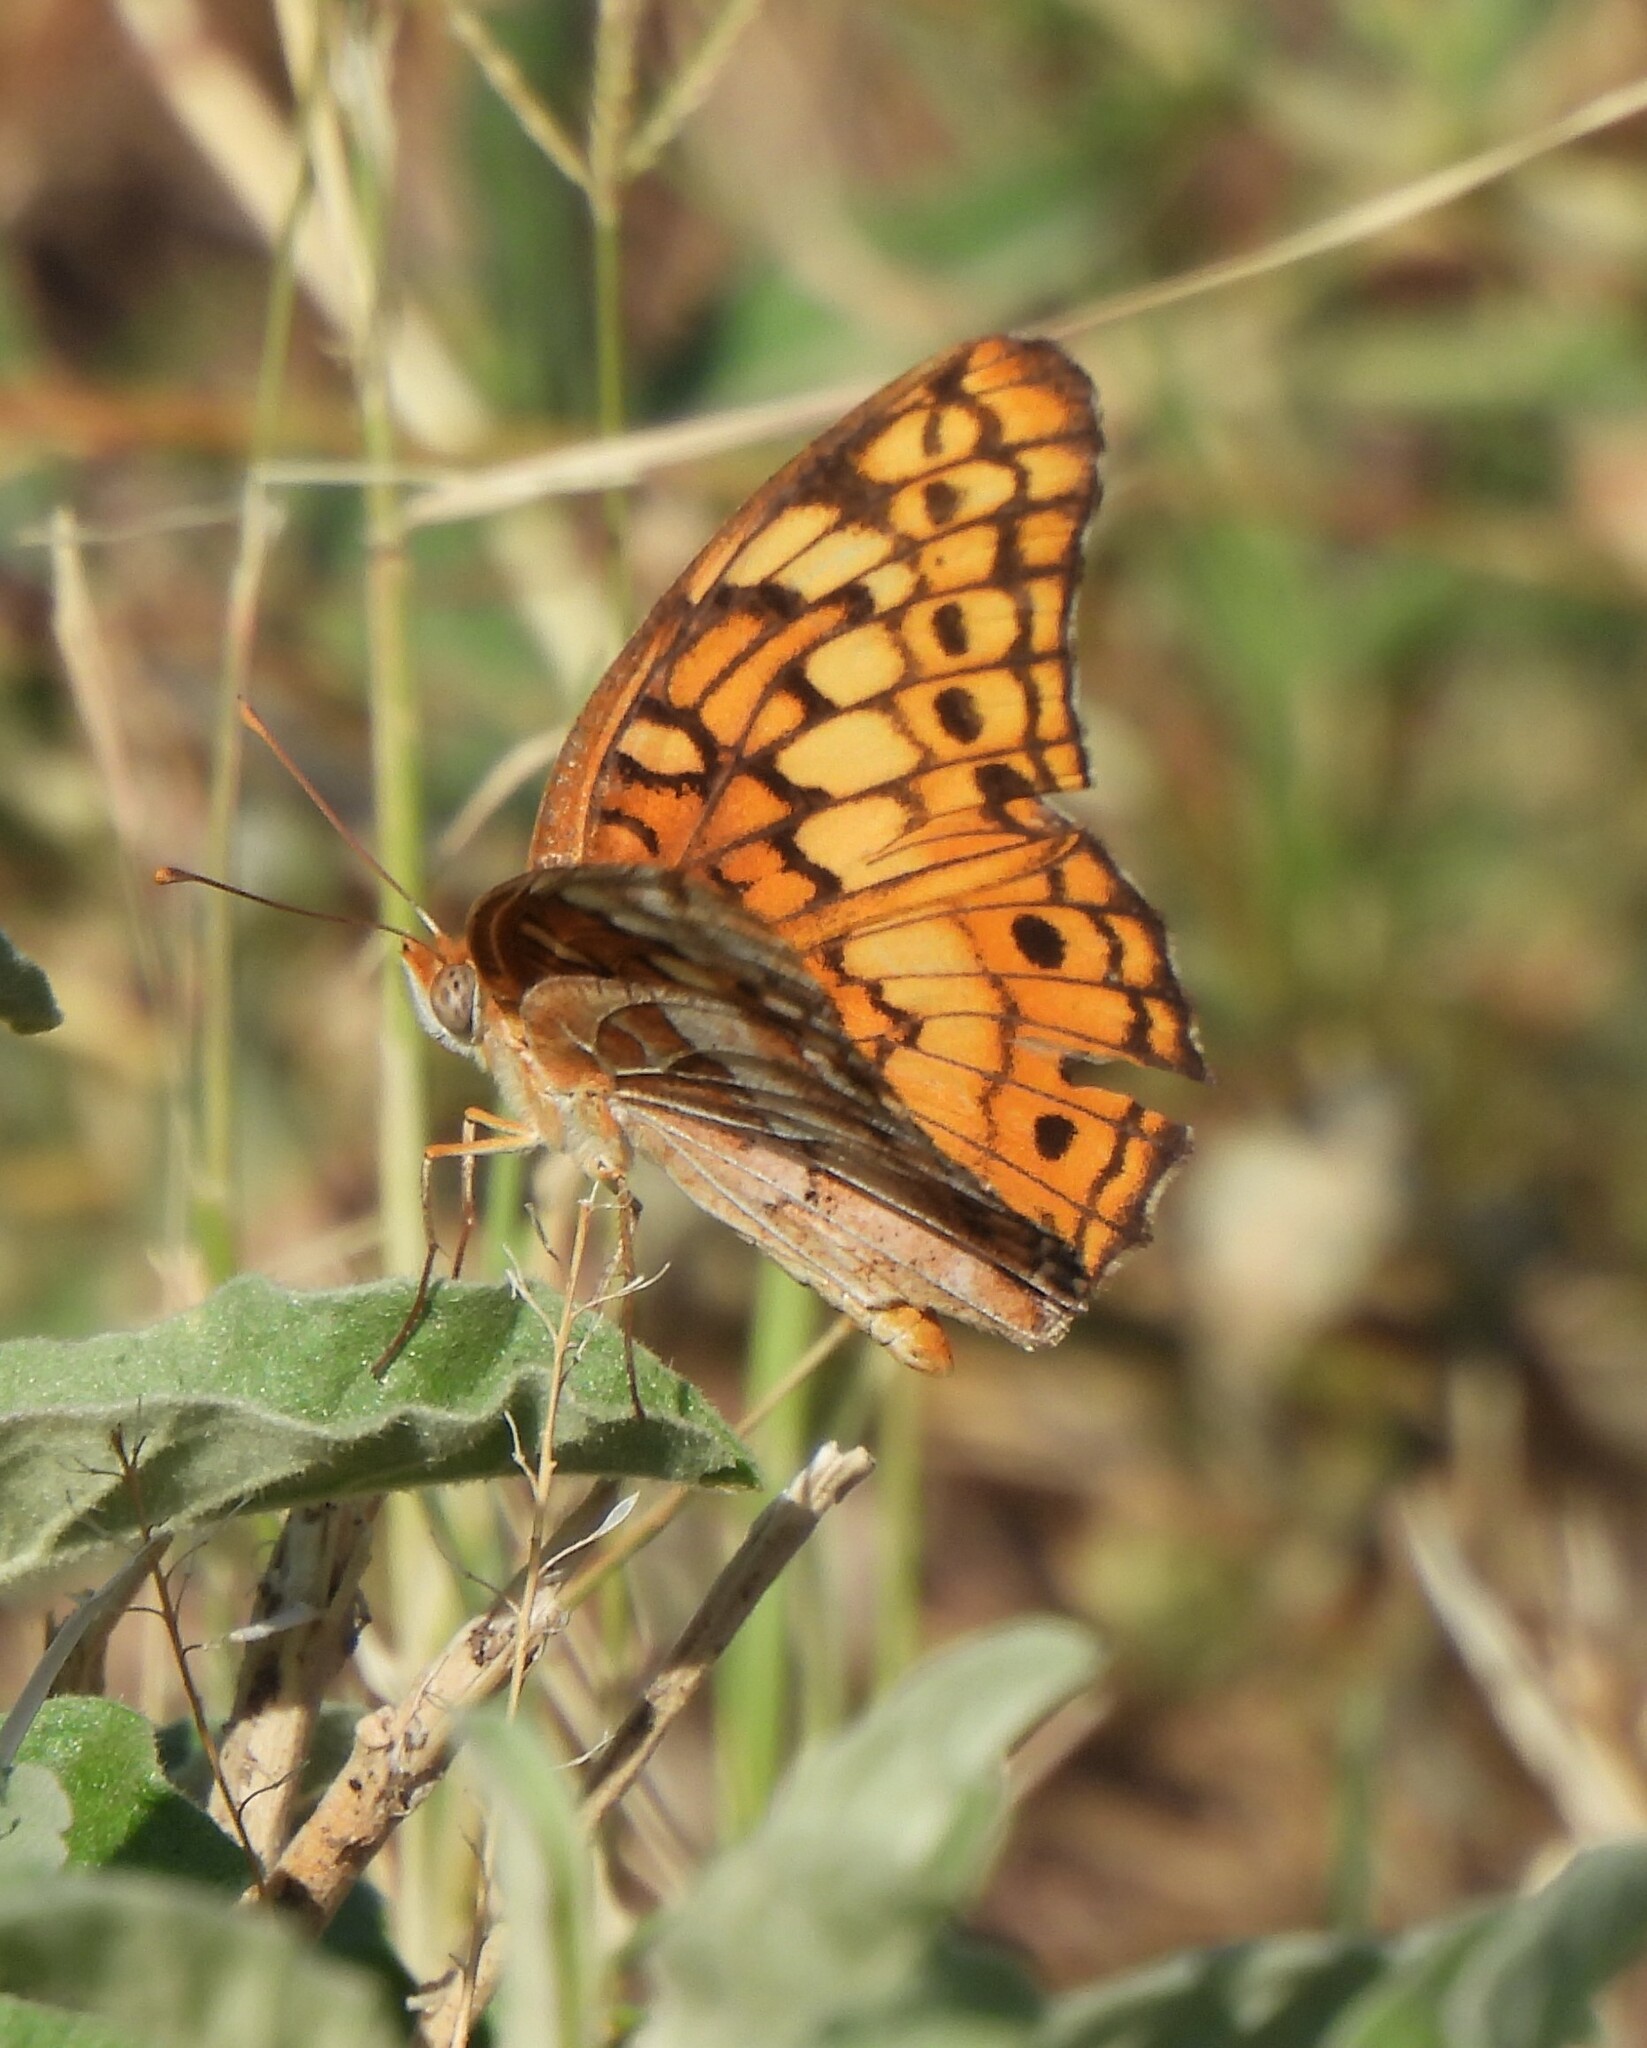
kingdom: Animalia
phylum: Arthropoda
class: Insecta
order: Lepidoptera
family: Nymphalidae
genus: Euptoieta
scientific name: Euptoieta claudia
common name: Variegated fritillary
